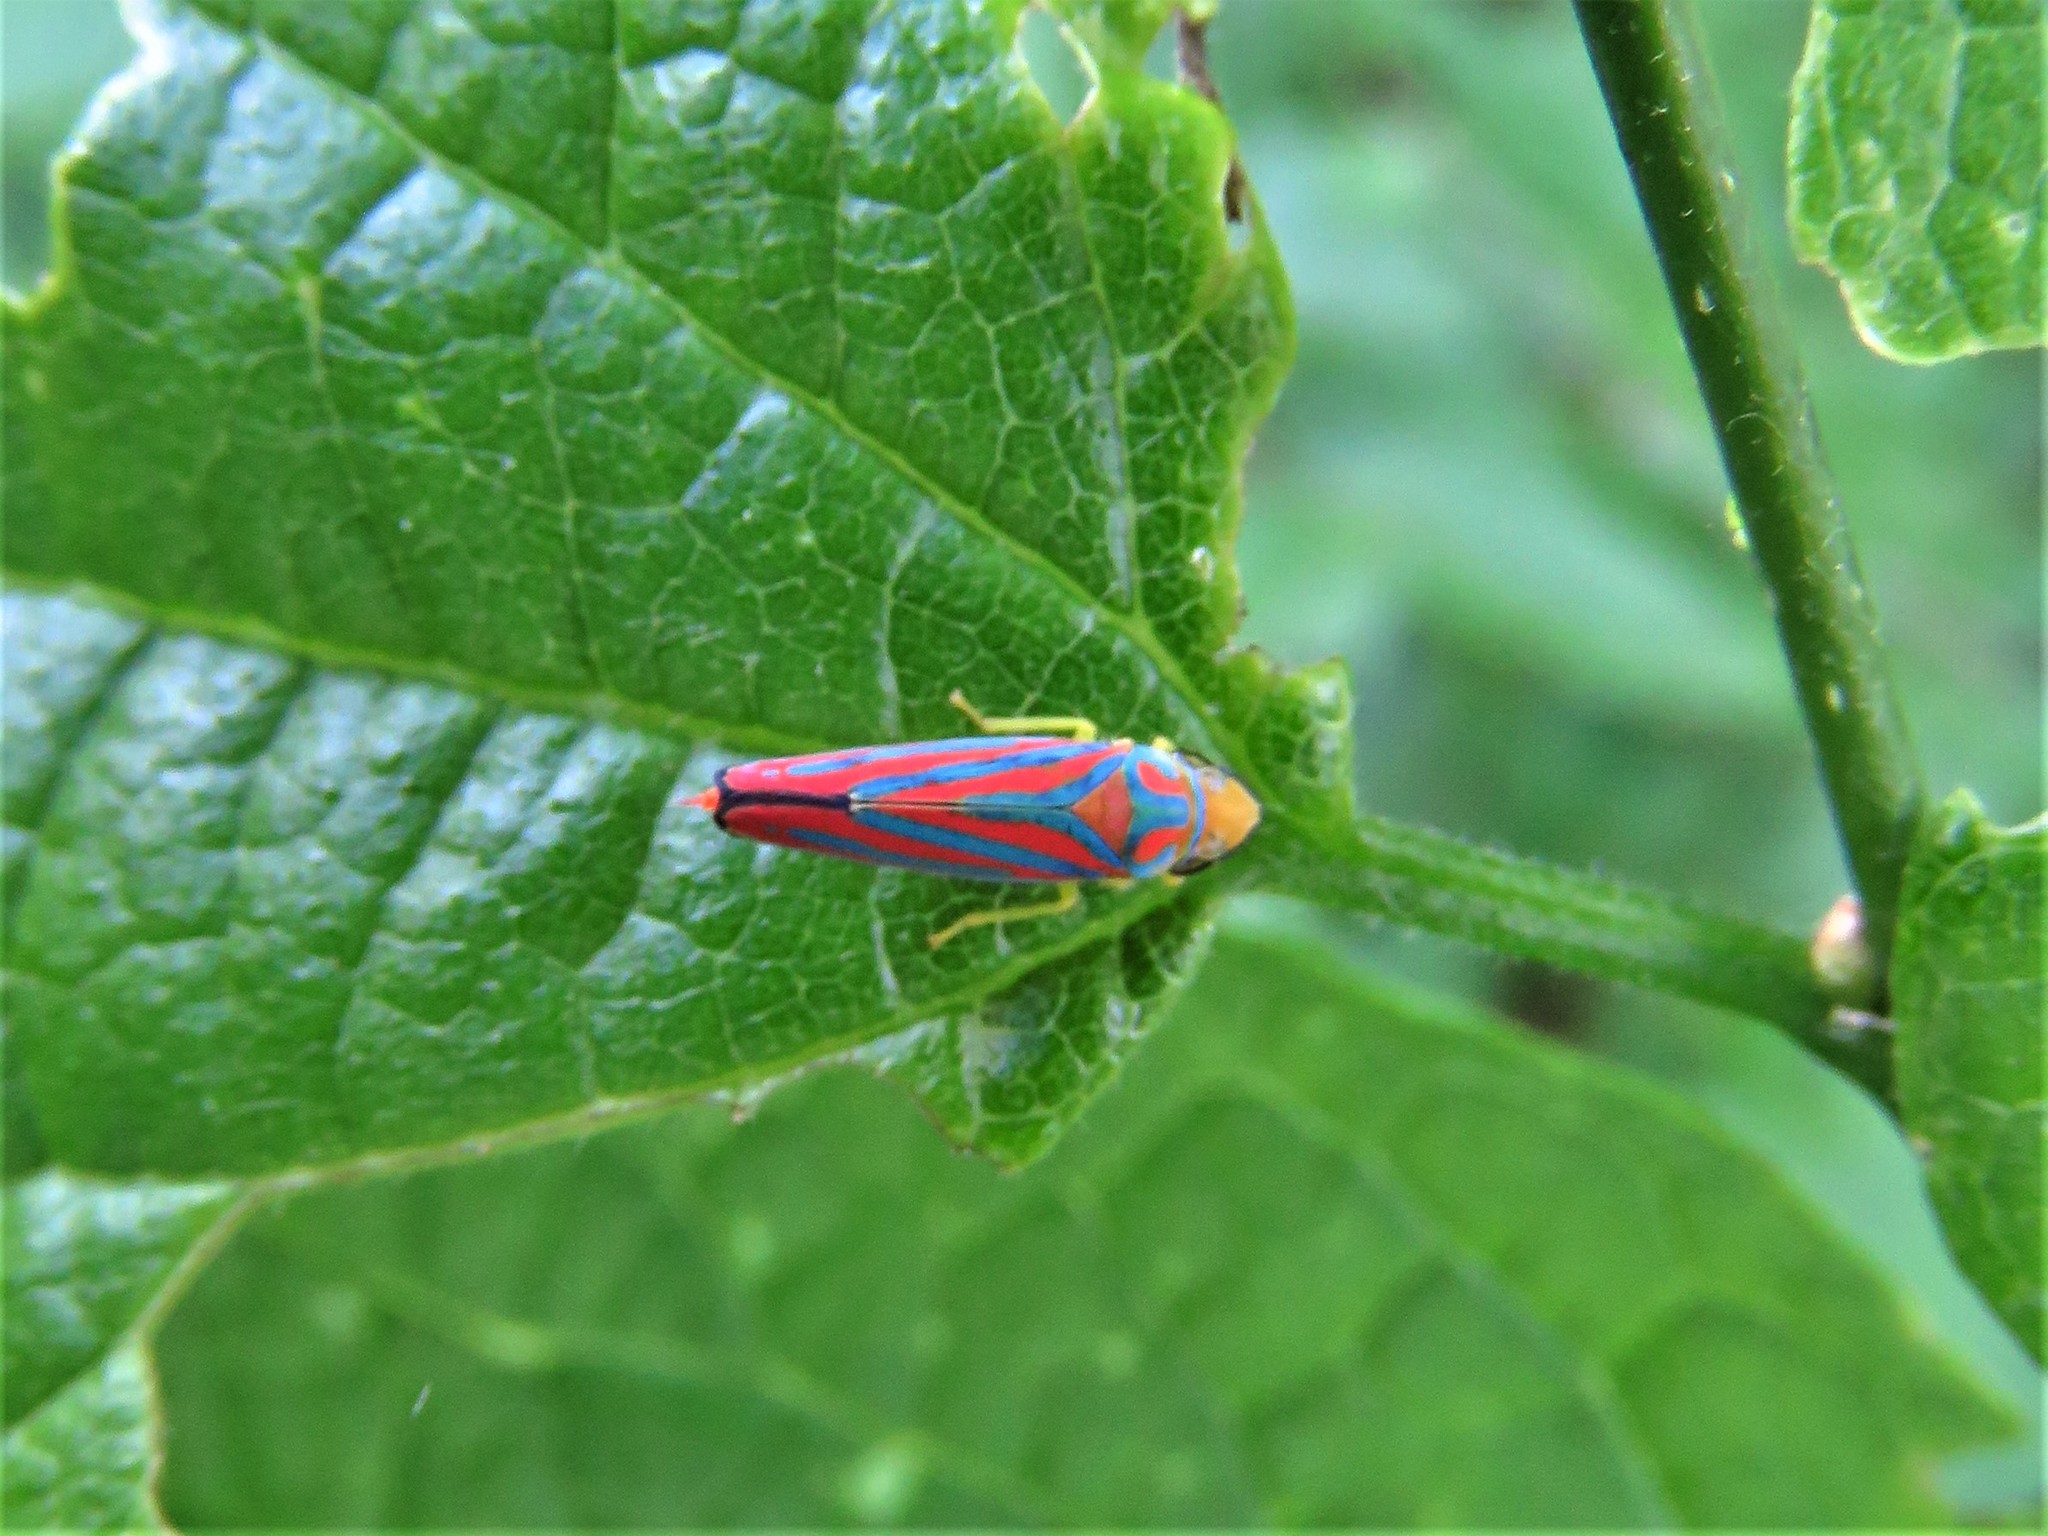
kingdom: Animalia
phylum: Arthropoda
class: Insecta
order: Hemiptera
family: Cicadellidae
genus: Graphocephala
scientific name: Graphocephala coccinea
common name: Candy-striped leafhopper
